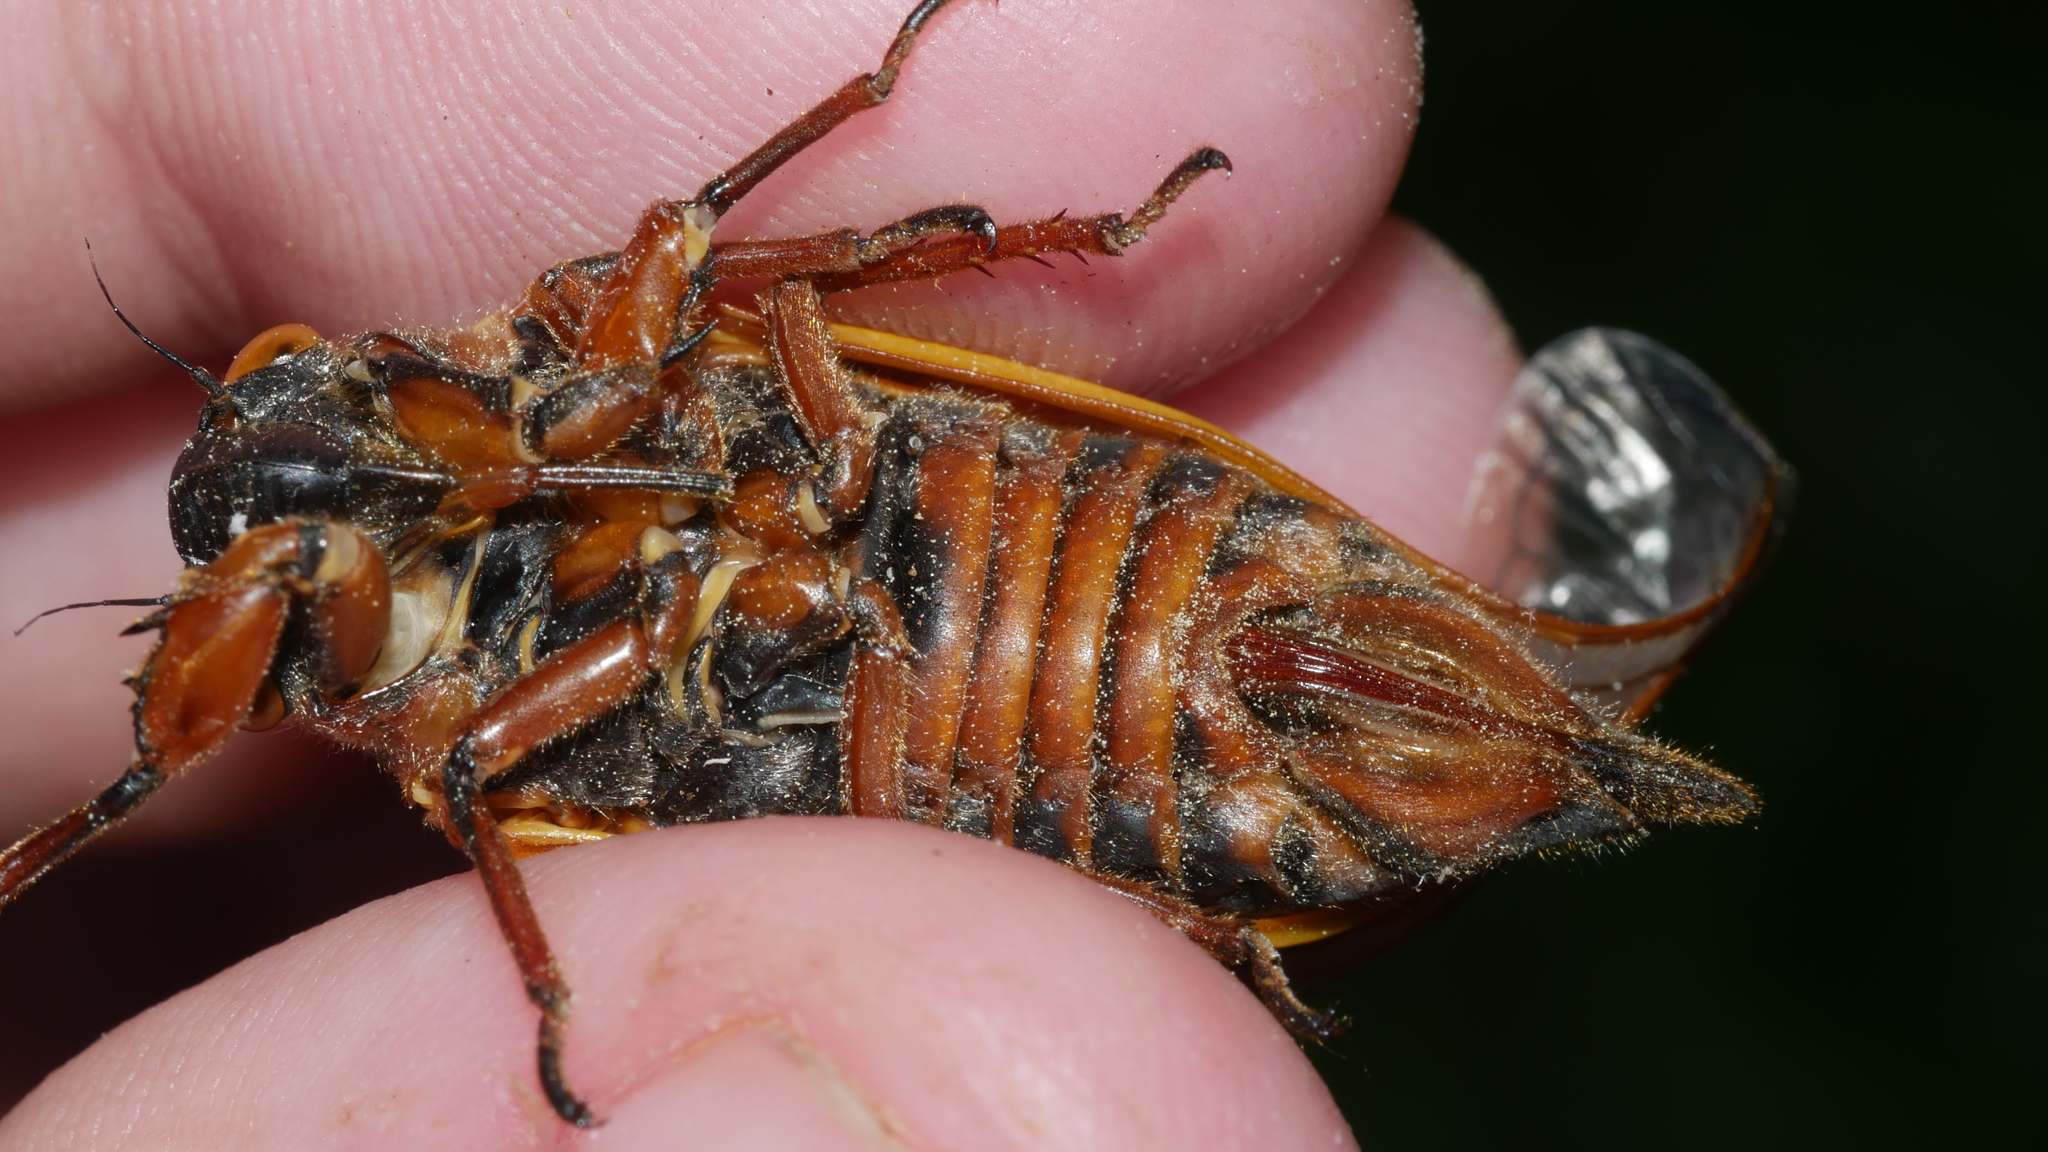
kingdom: Animalia
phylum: Arthropoda
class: Insecta
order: Hemiptera
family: Cicadidae
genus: Magicicada
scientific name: Magicicada septendecim
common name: Periodical cicada
